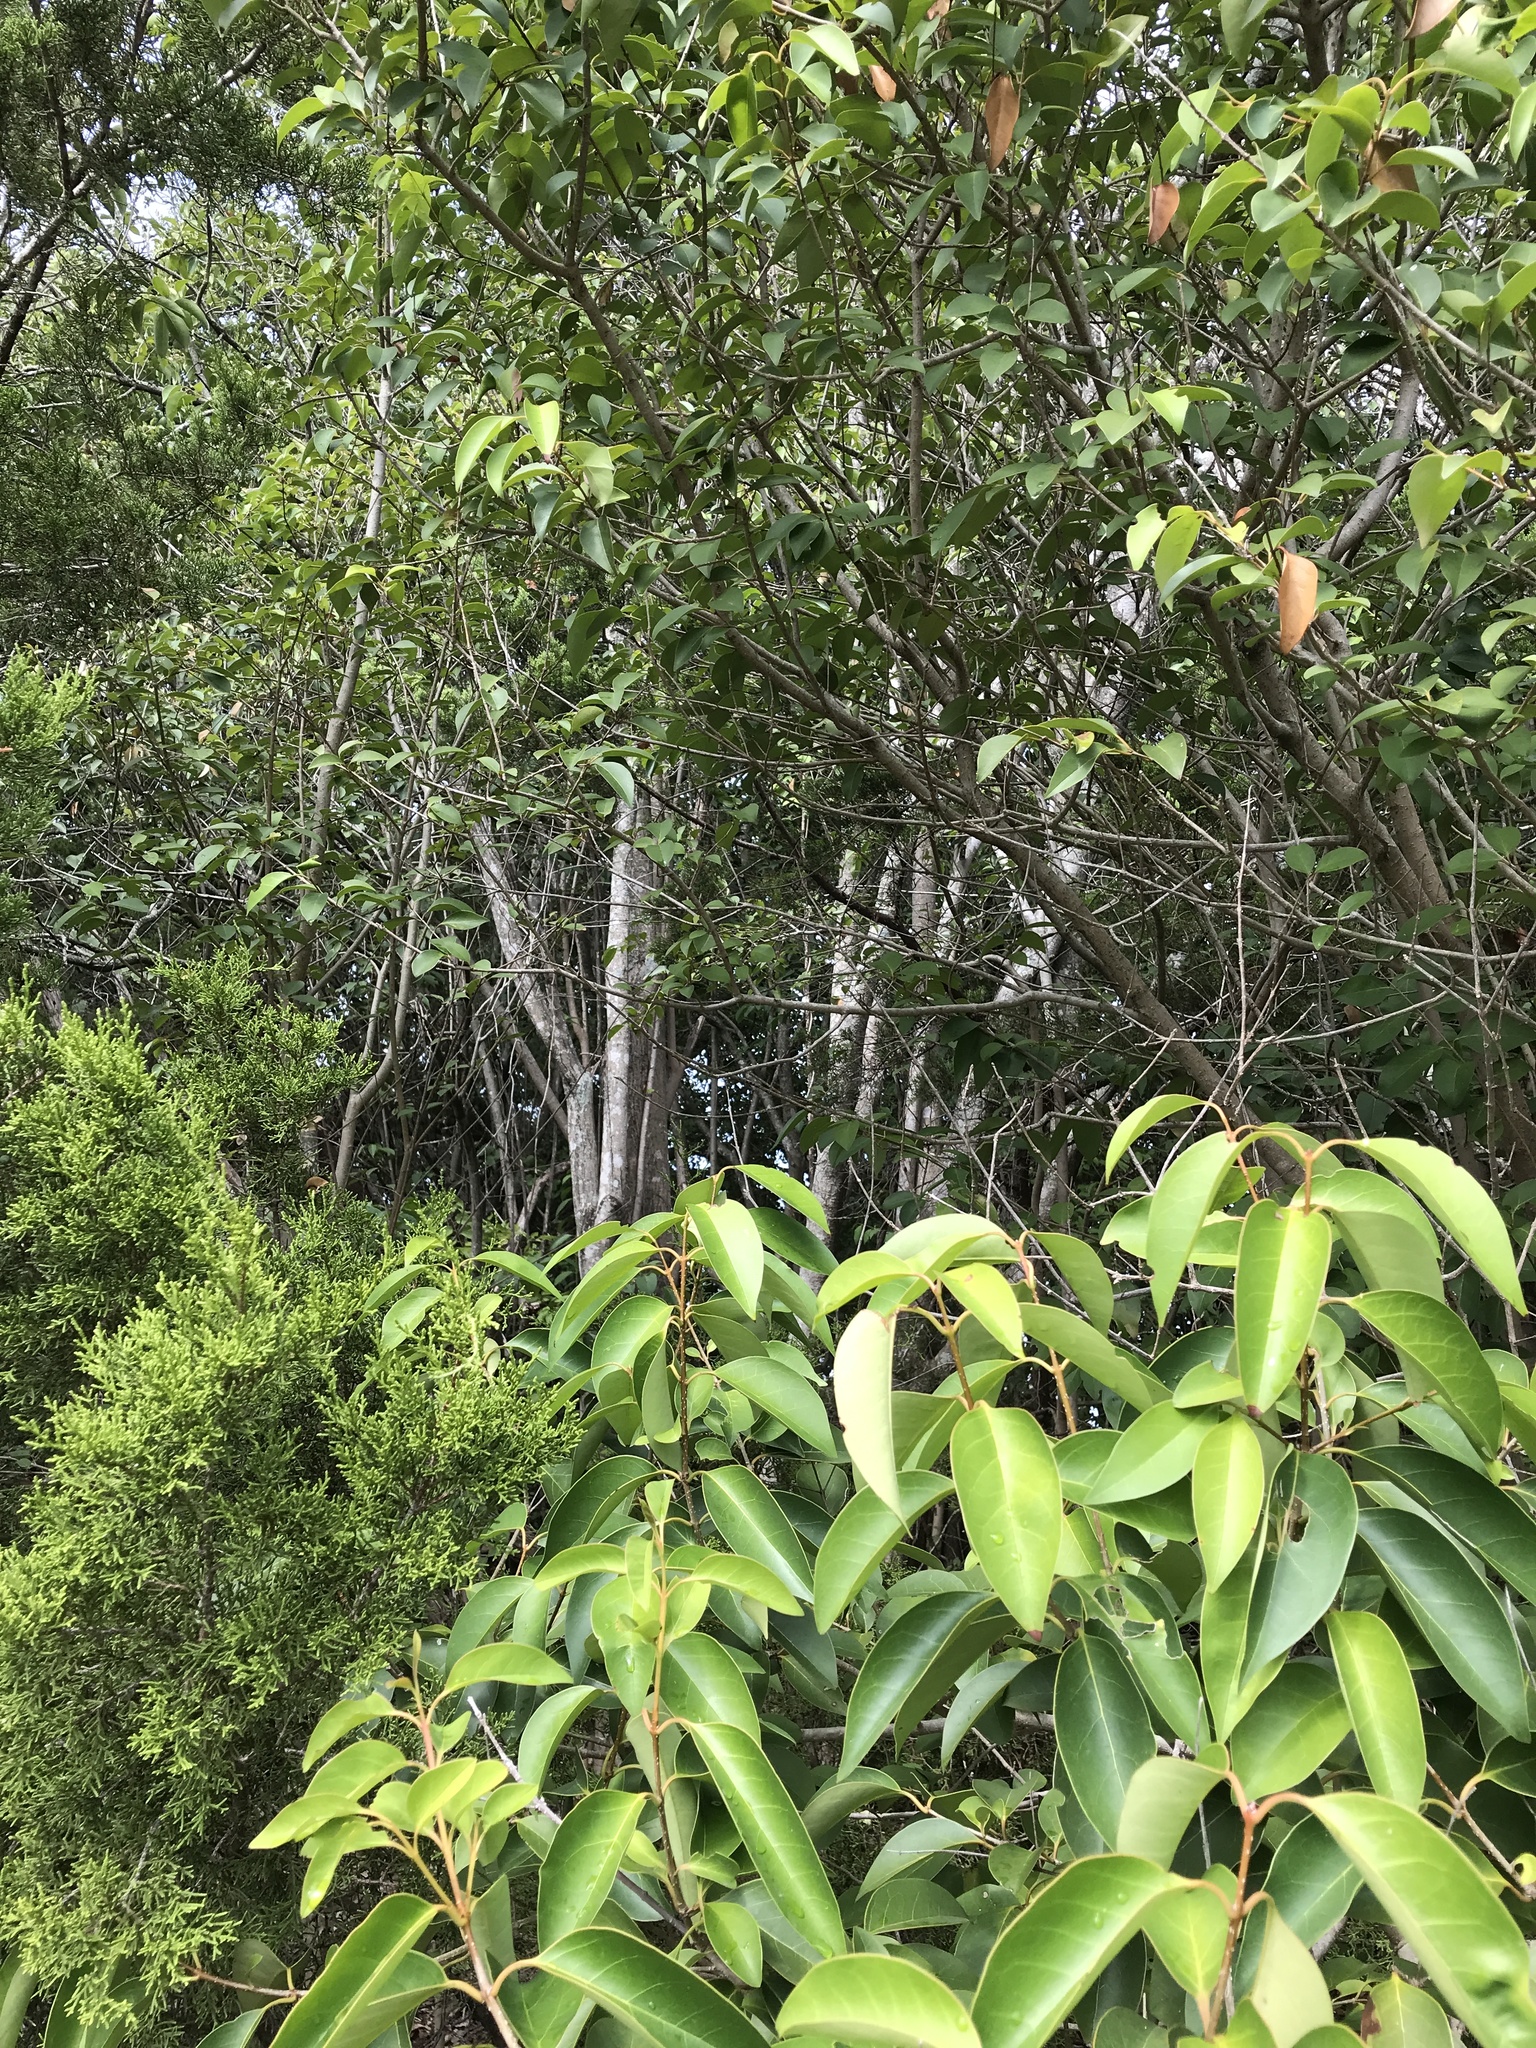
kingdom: Plantae
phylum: Tracheophyta
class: Magnoliopsida
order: Lamiales
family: Oleaceae
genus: Ligustrum
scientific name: Ligustrum lucidum
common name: Glossy privet
